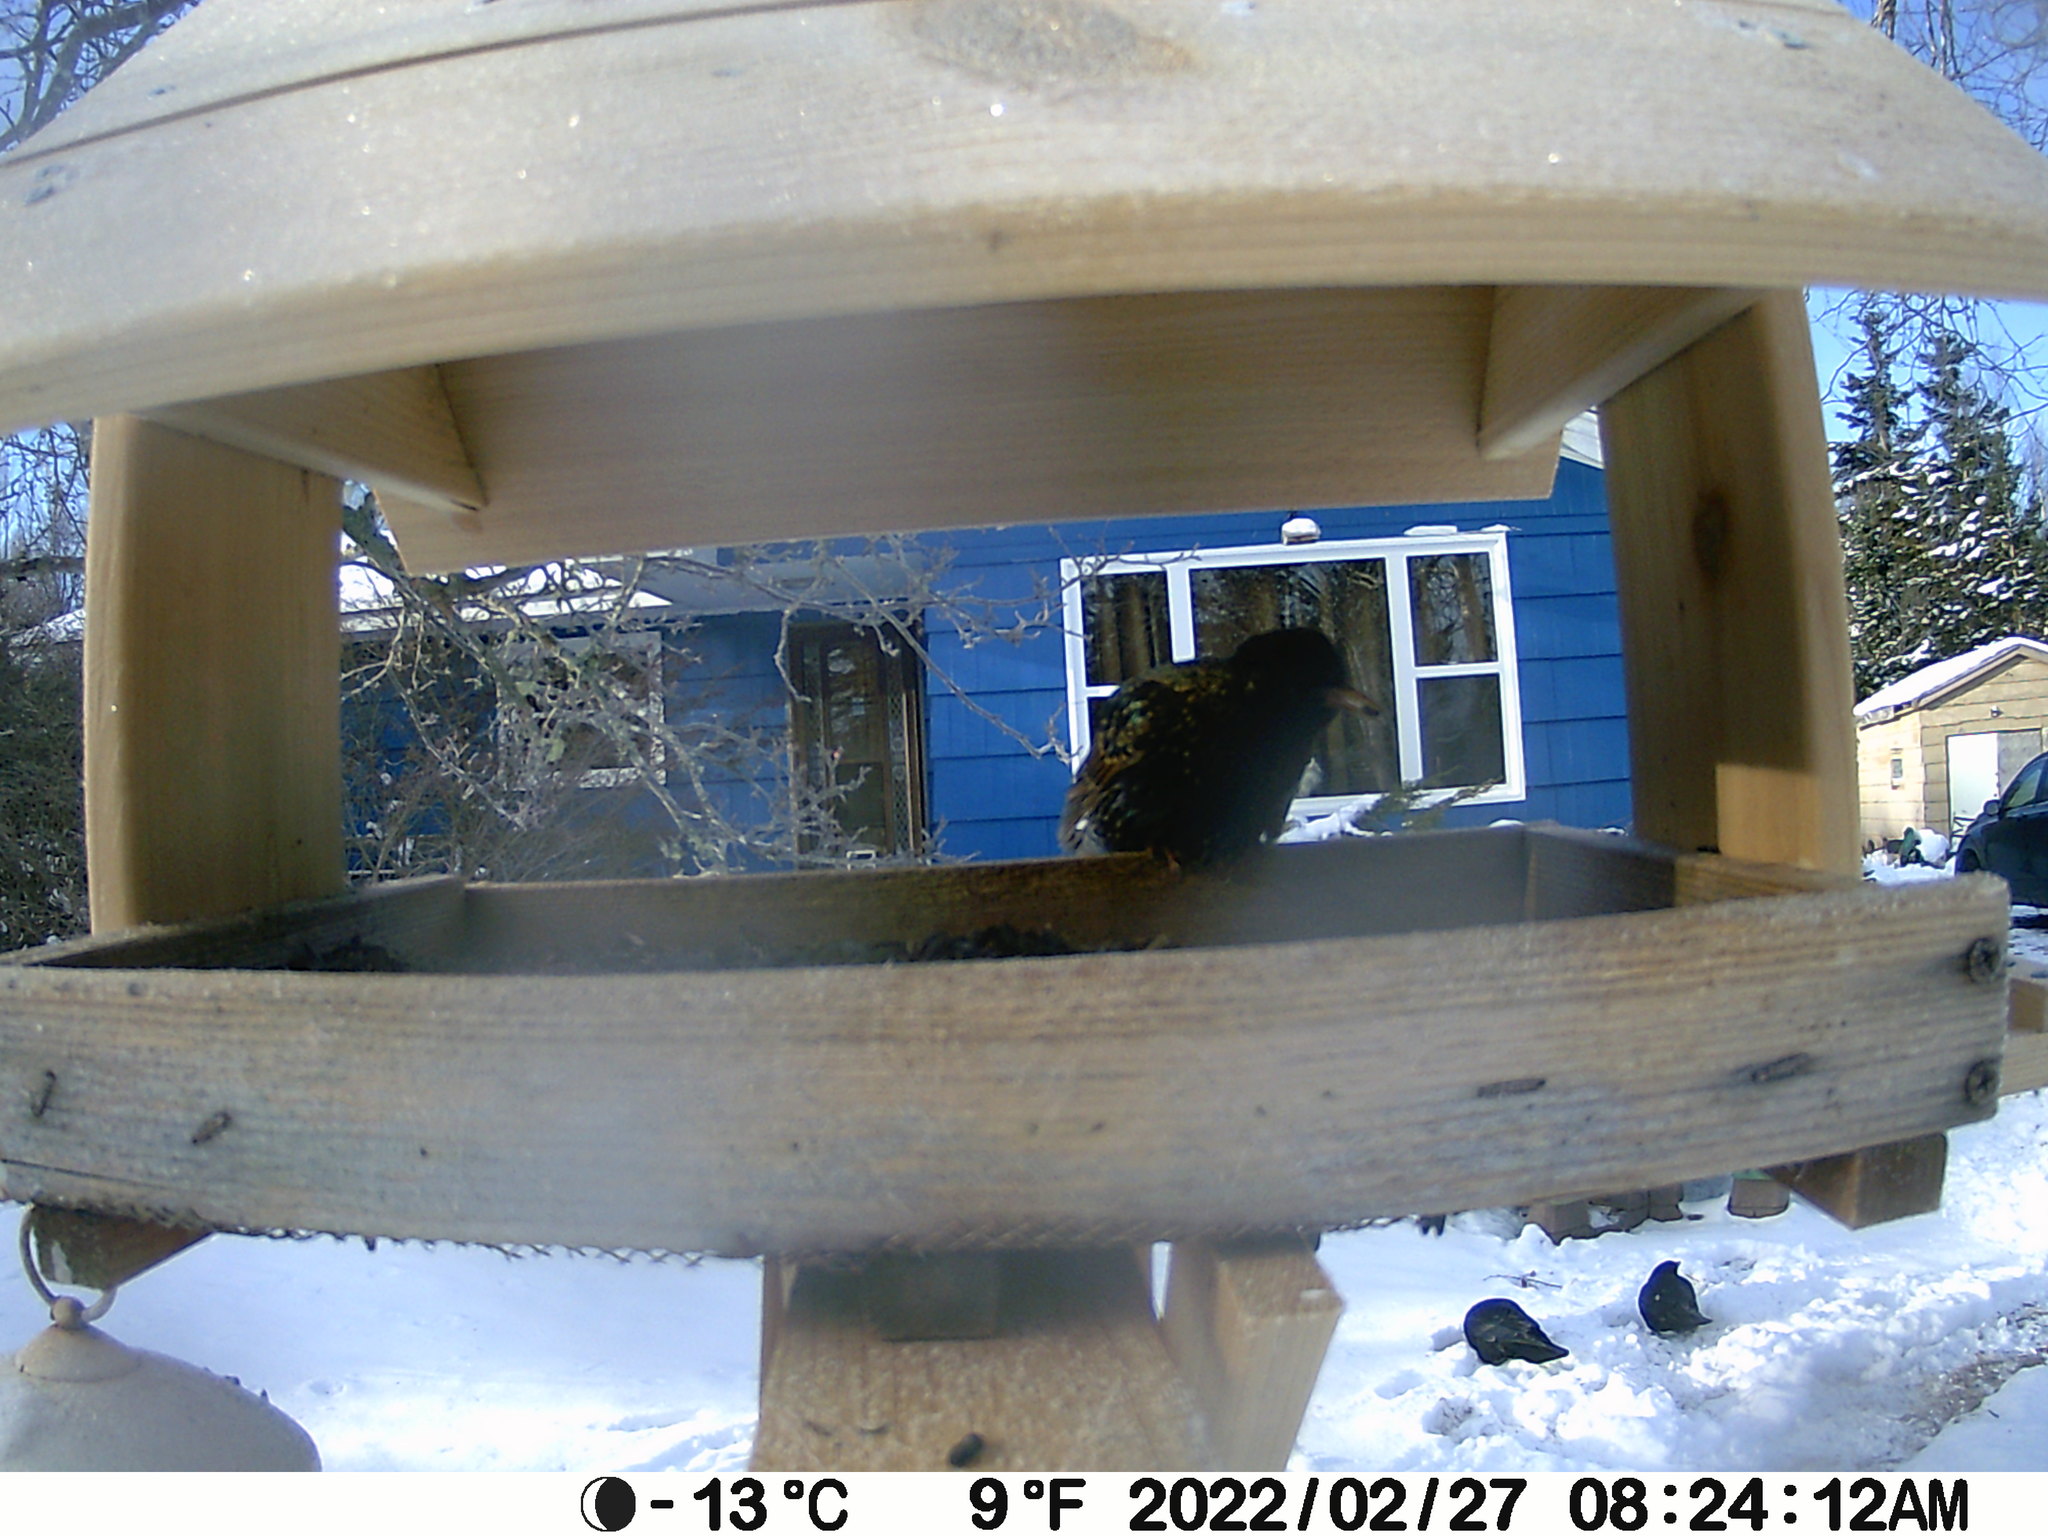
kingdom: Animalia
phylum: Chordata
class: Aves
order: Passeriformes
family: Sturnidae
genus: Sturnus
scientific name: Sturnus vulgaris
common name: Common starling
